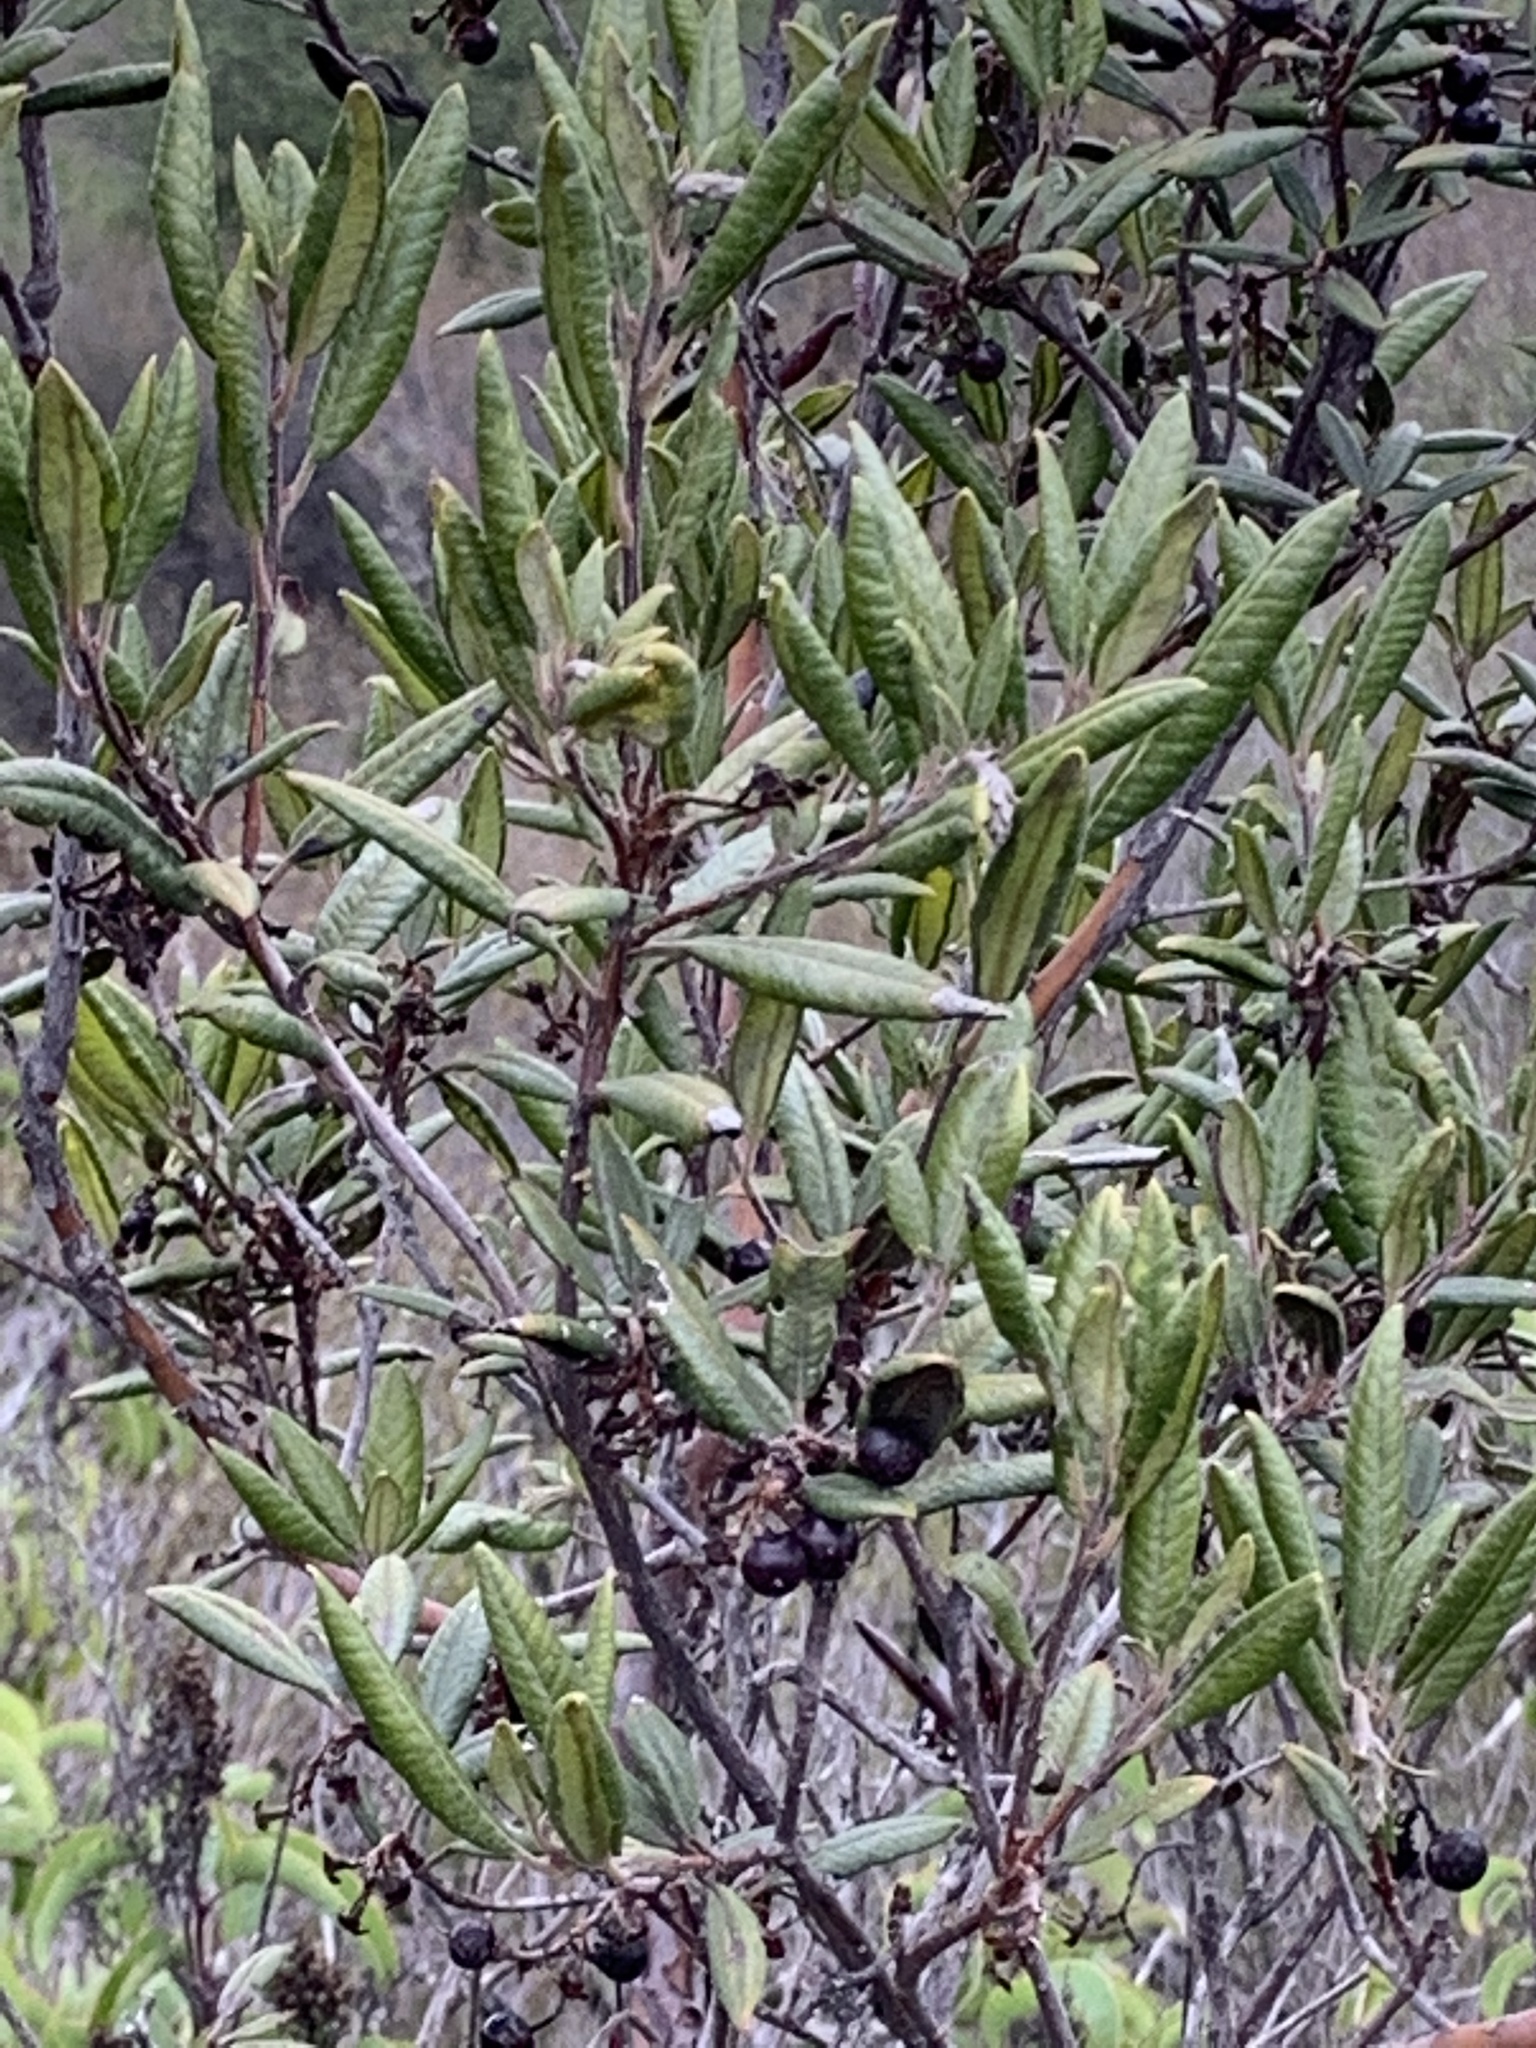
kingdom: Plantae
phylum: Tracheophyta
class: Magnoliopsida
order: Ericales
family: Ericaceae
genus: Arctostaphylos
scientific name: Arctostaphylos bicolor
